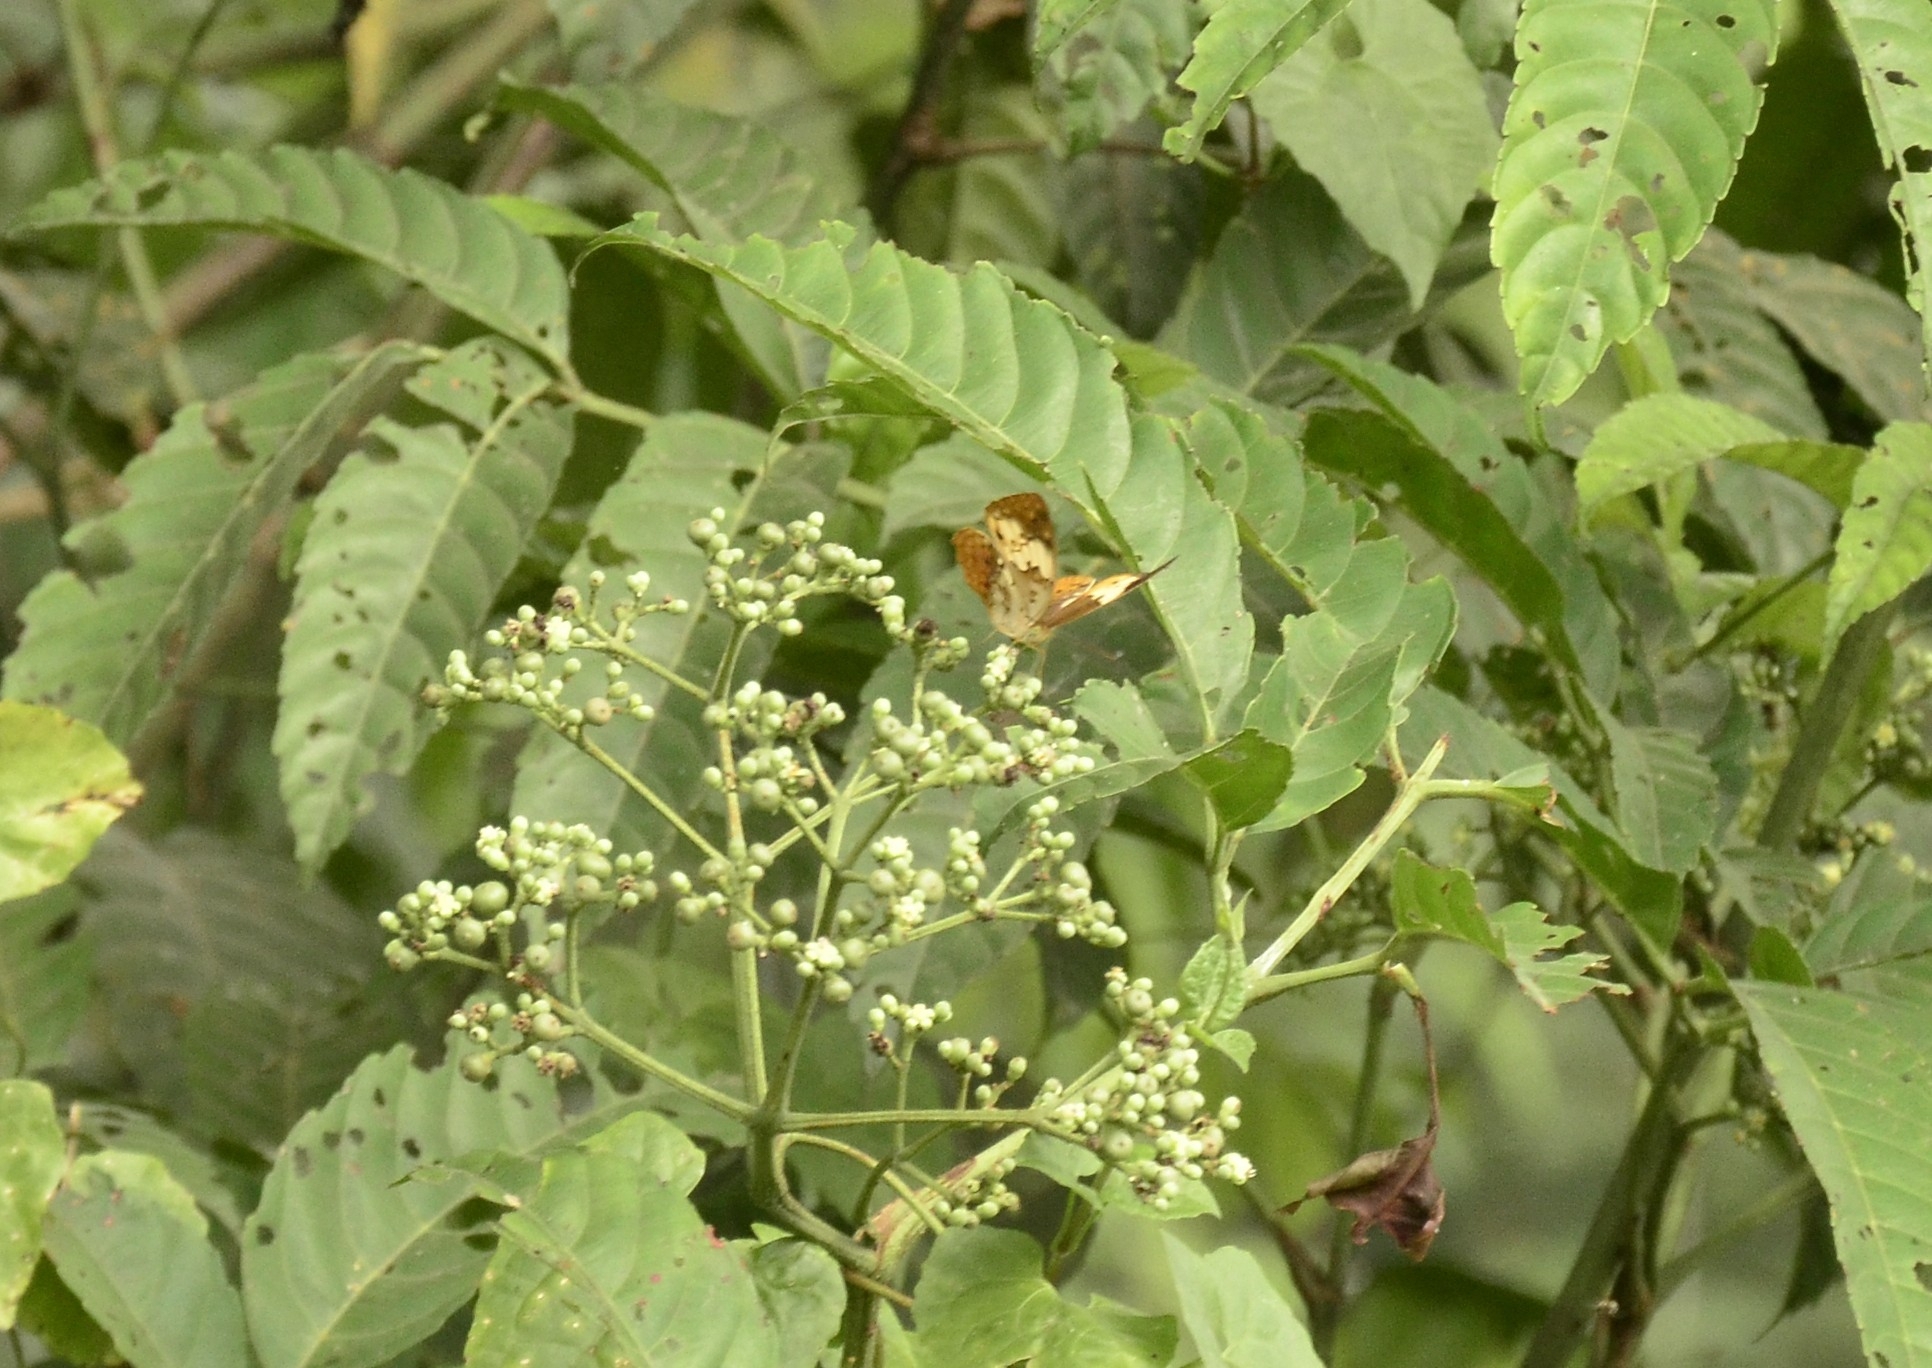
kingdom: Animalia
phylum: Arthropoda
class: Insecta
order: Lepidoptera
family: Nymphalidae
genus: Cupha
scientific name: Cupha erymanthis
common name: Rustic
